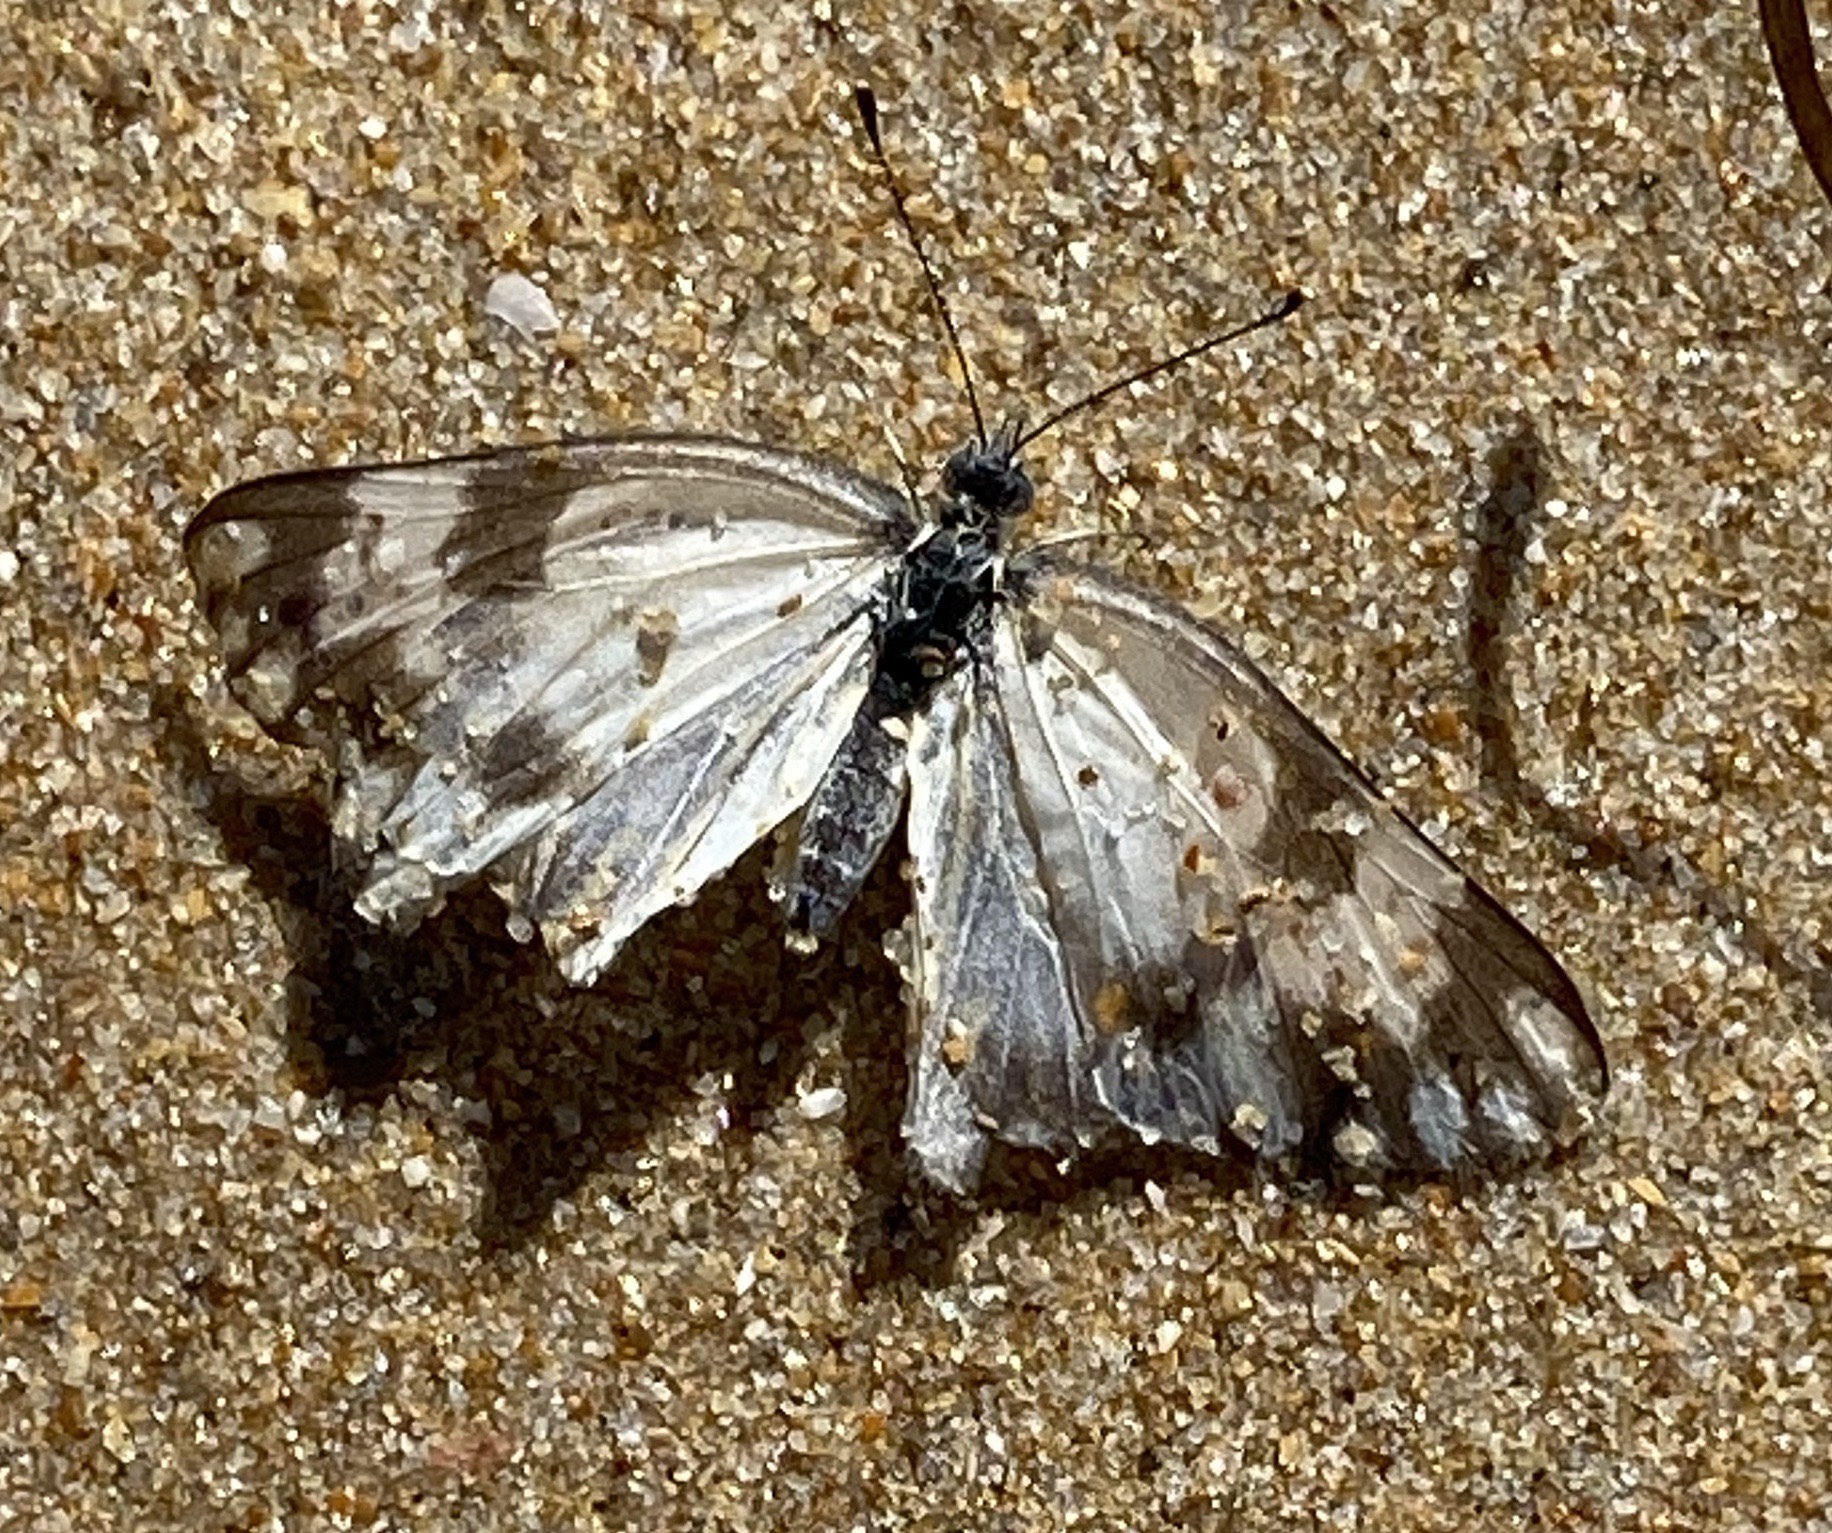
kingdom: Animalia
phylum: Arthropoda
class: Insecta
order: Lepidoptera
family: Pieridae
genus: Pontia
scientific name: Pontia helice
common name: Meadow white
